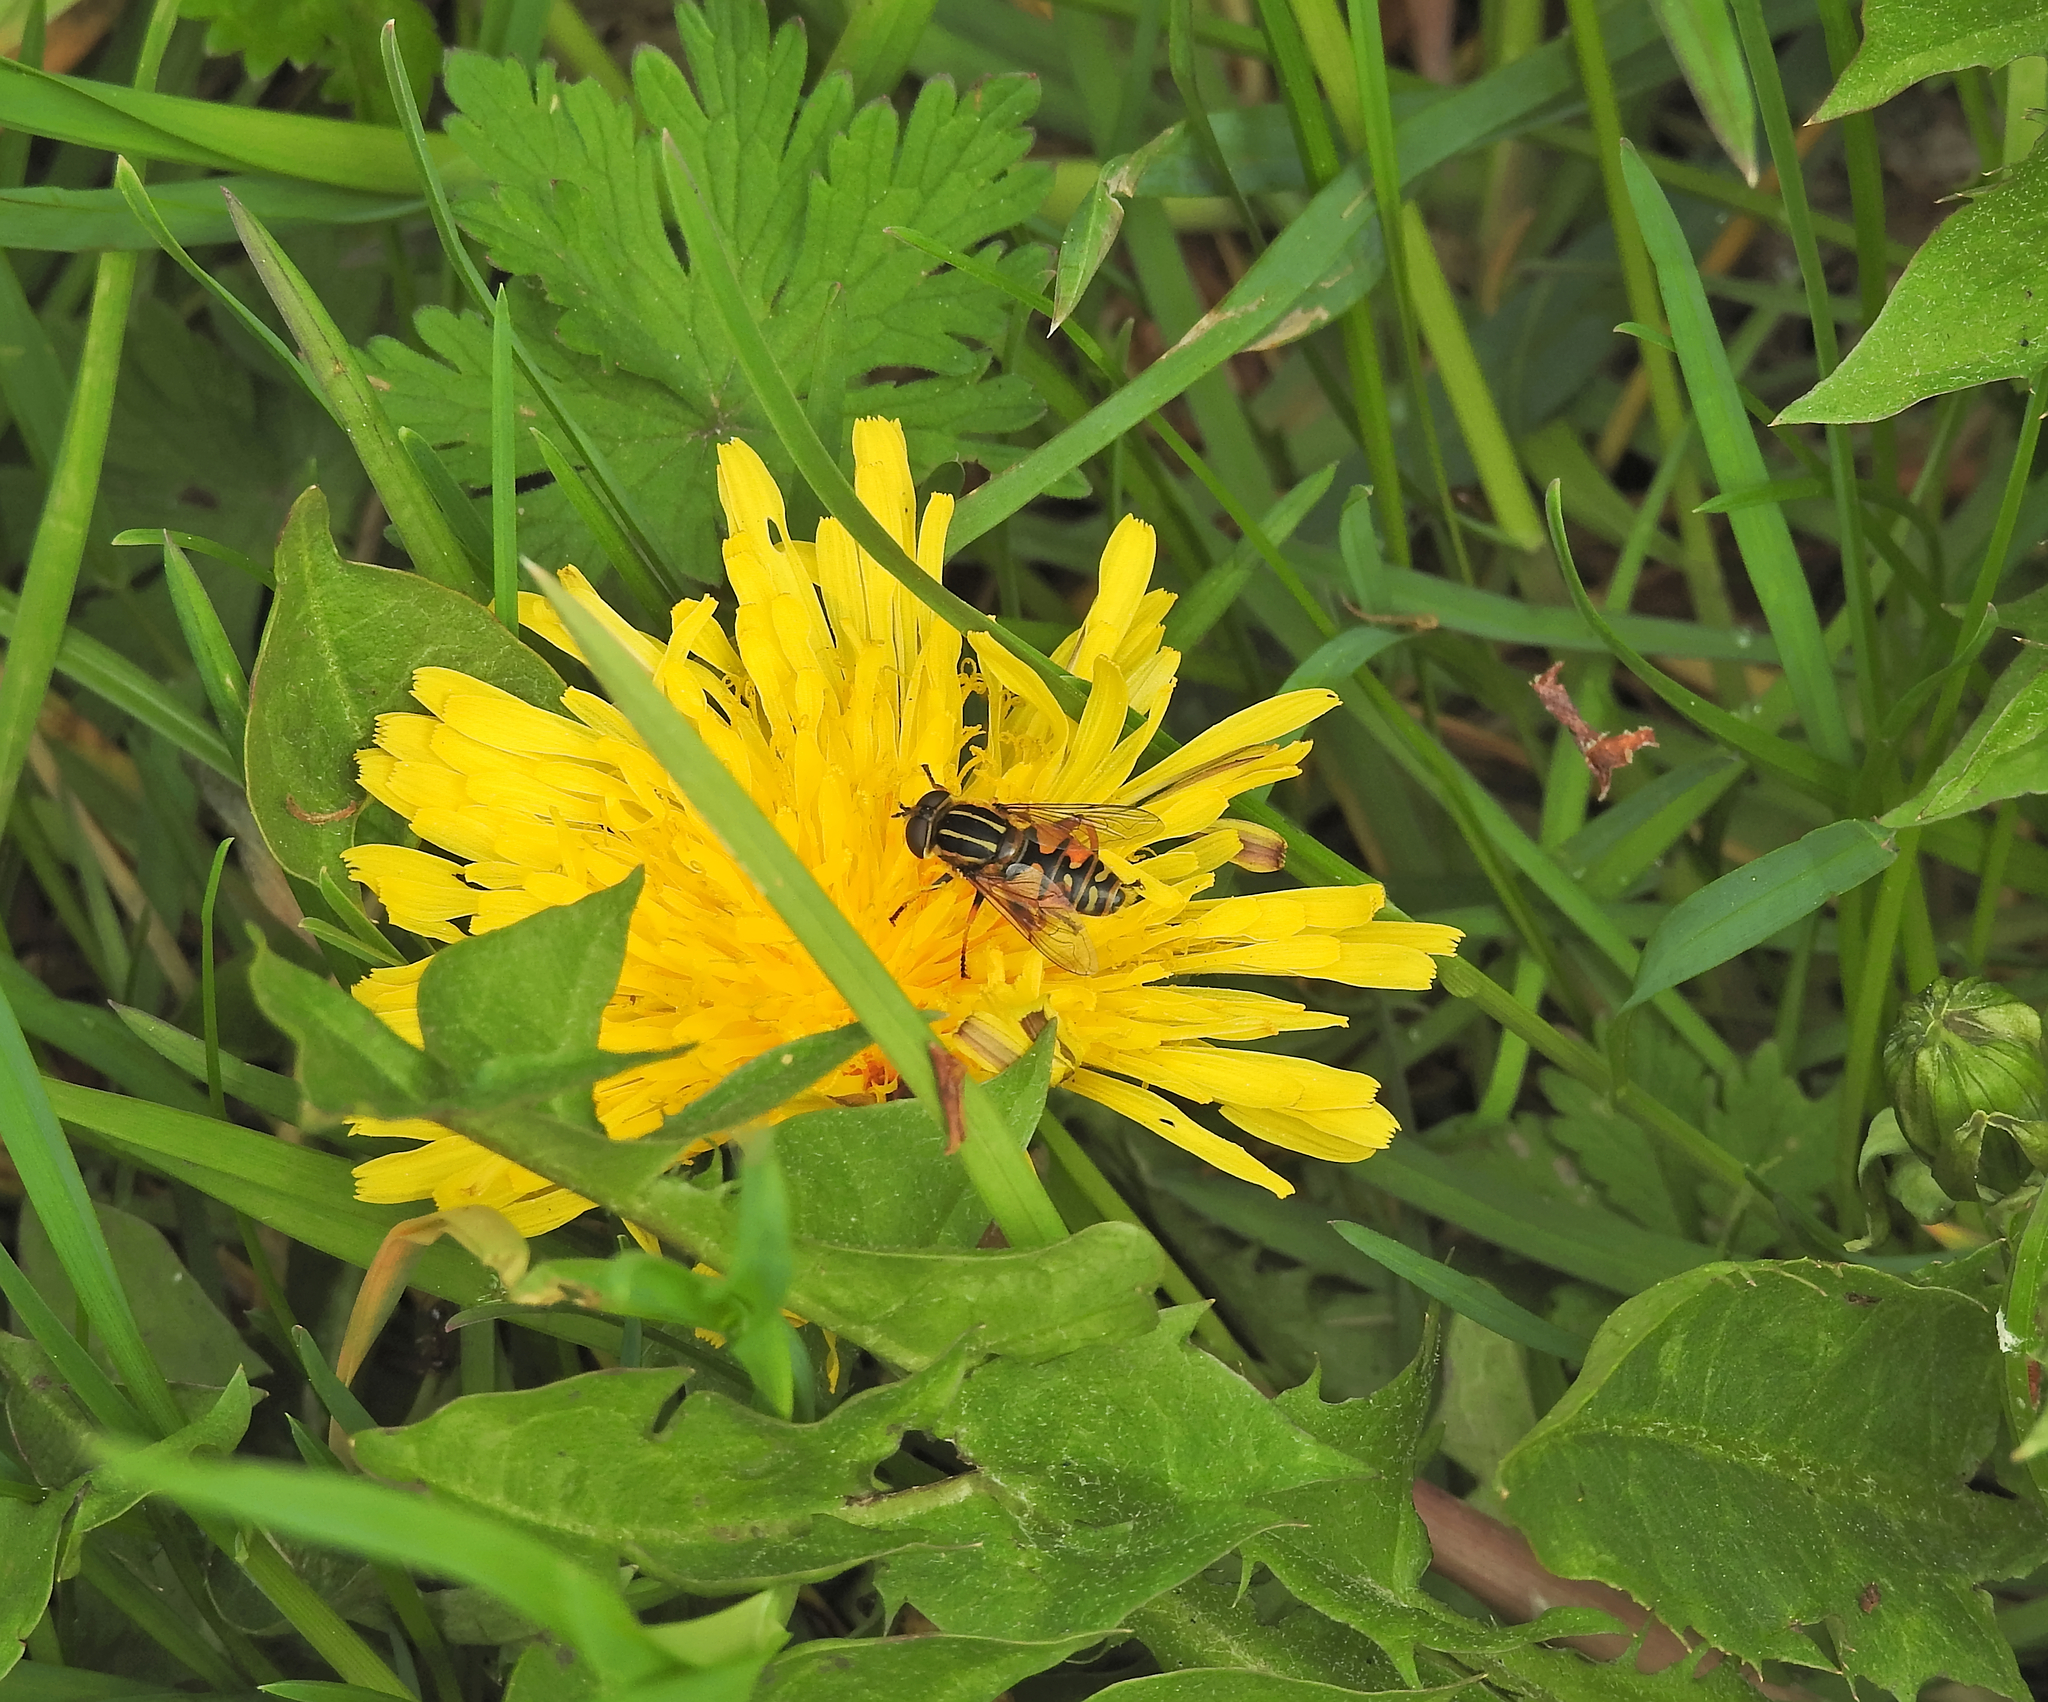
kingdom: Animalia
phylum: Arthropoda
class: Insecta
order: Diptera
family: Syrphidae
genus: Helophilus
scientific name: Helophilus pendulus
